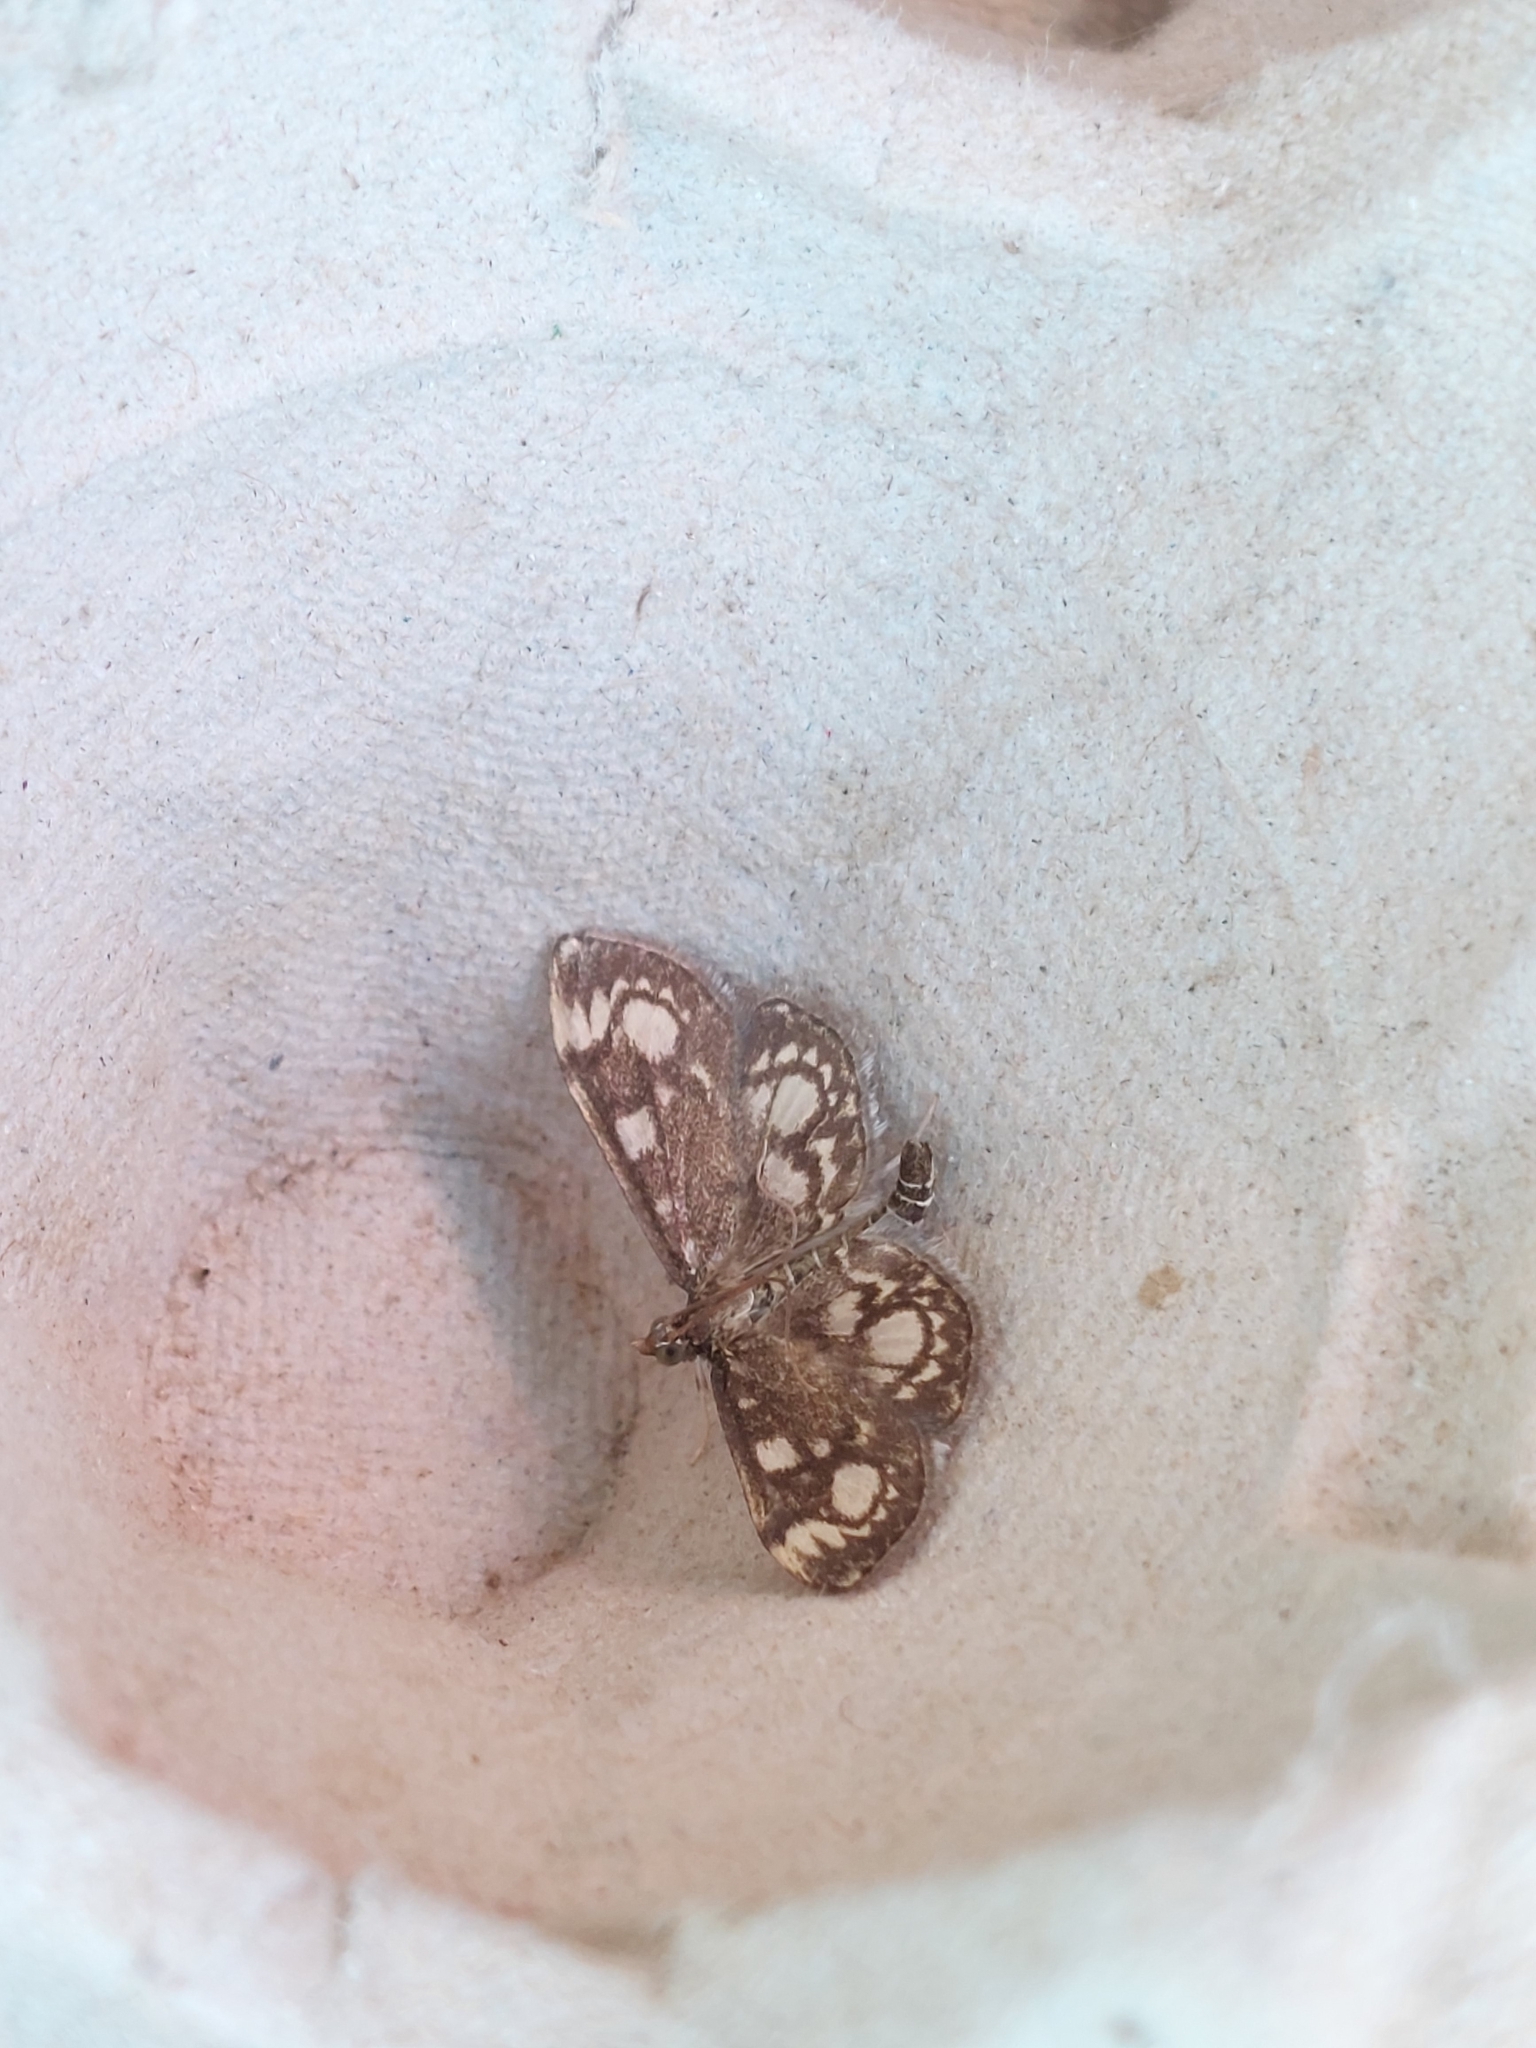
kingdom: Animalia
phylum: Arthropoda
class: Insecta
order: Lepidoptera
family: Crambidae
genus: Anania
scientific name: Anania coronata
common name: Elder pearl
